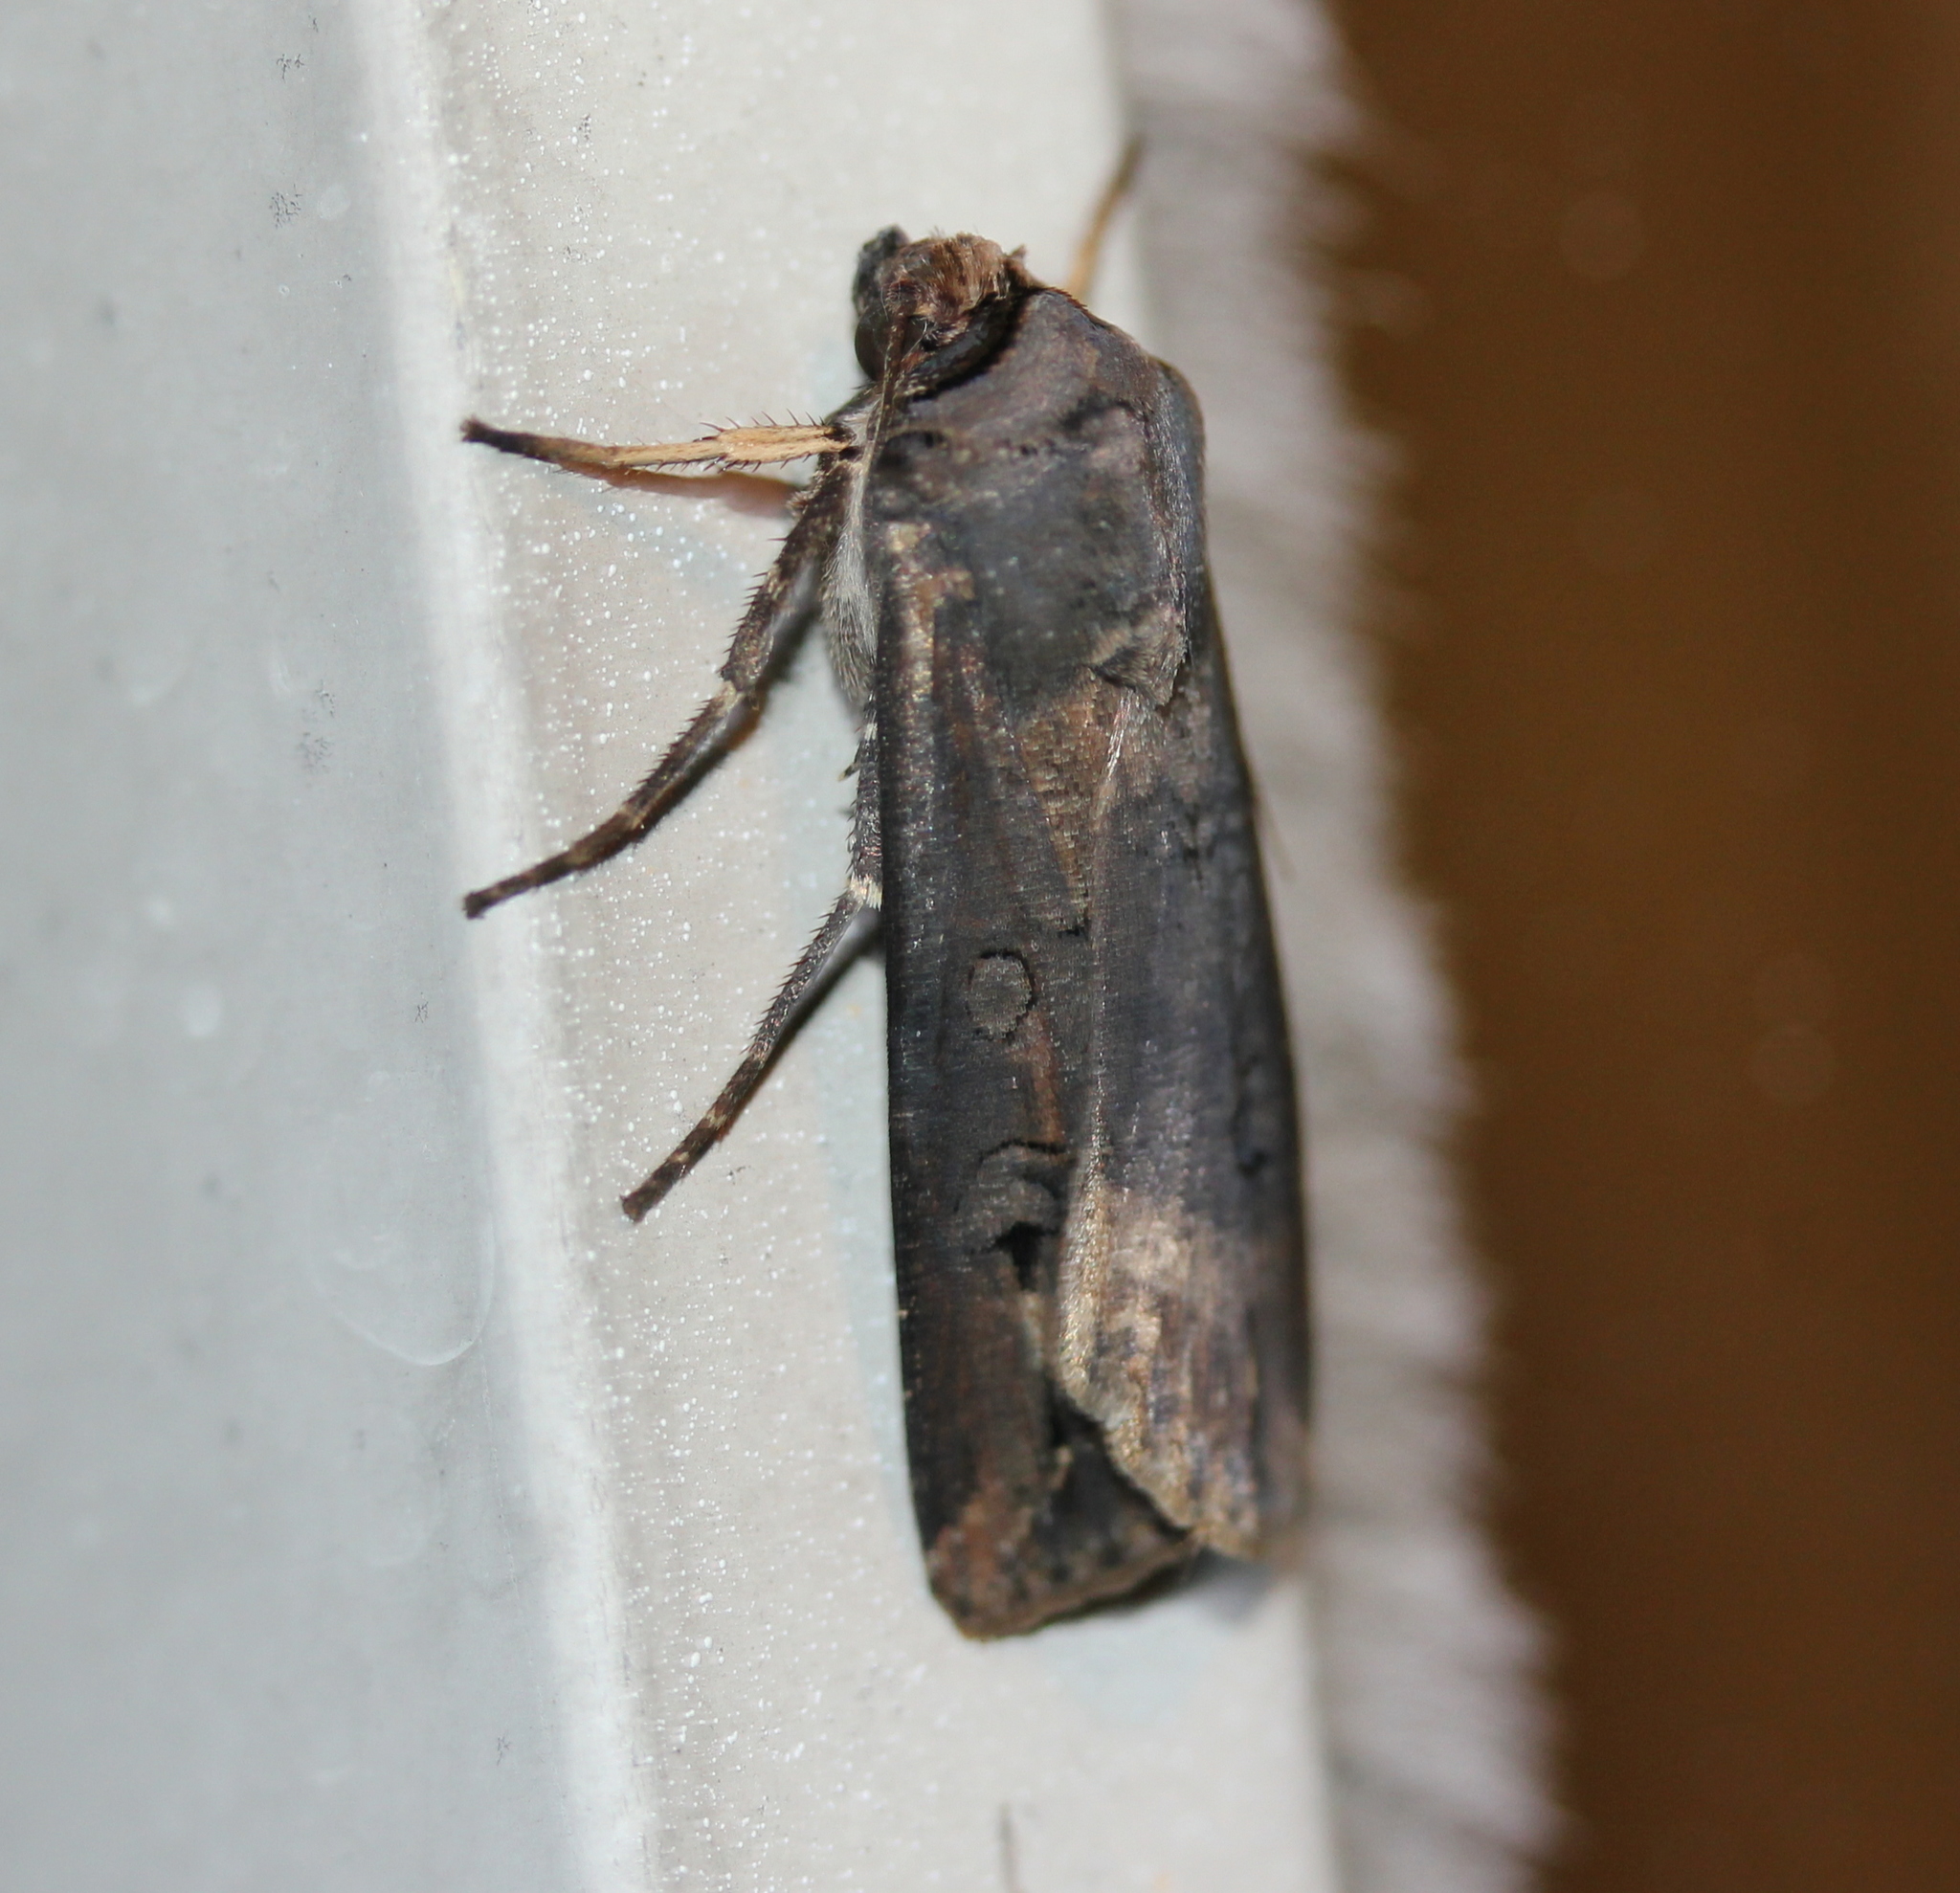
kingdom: Animalia
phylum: Arthropoda
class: Insecta
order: Lepidoptera
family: Noctuidae
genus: Agrotis
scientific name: Agrotis ipsilon
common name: Dark sword-grass
